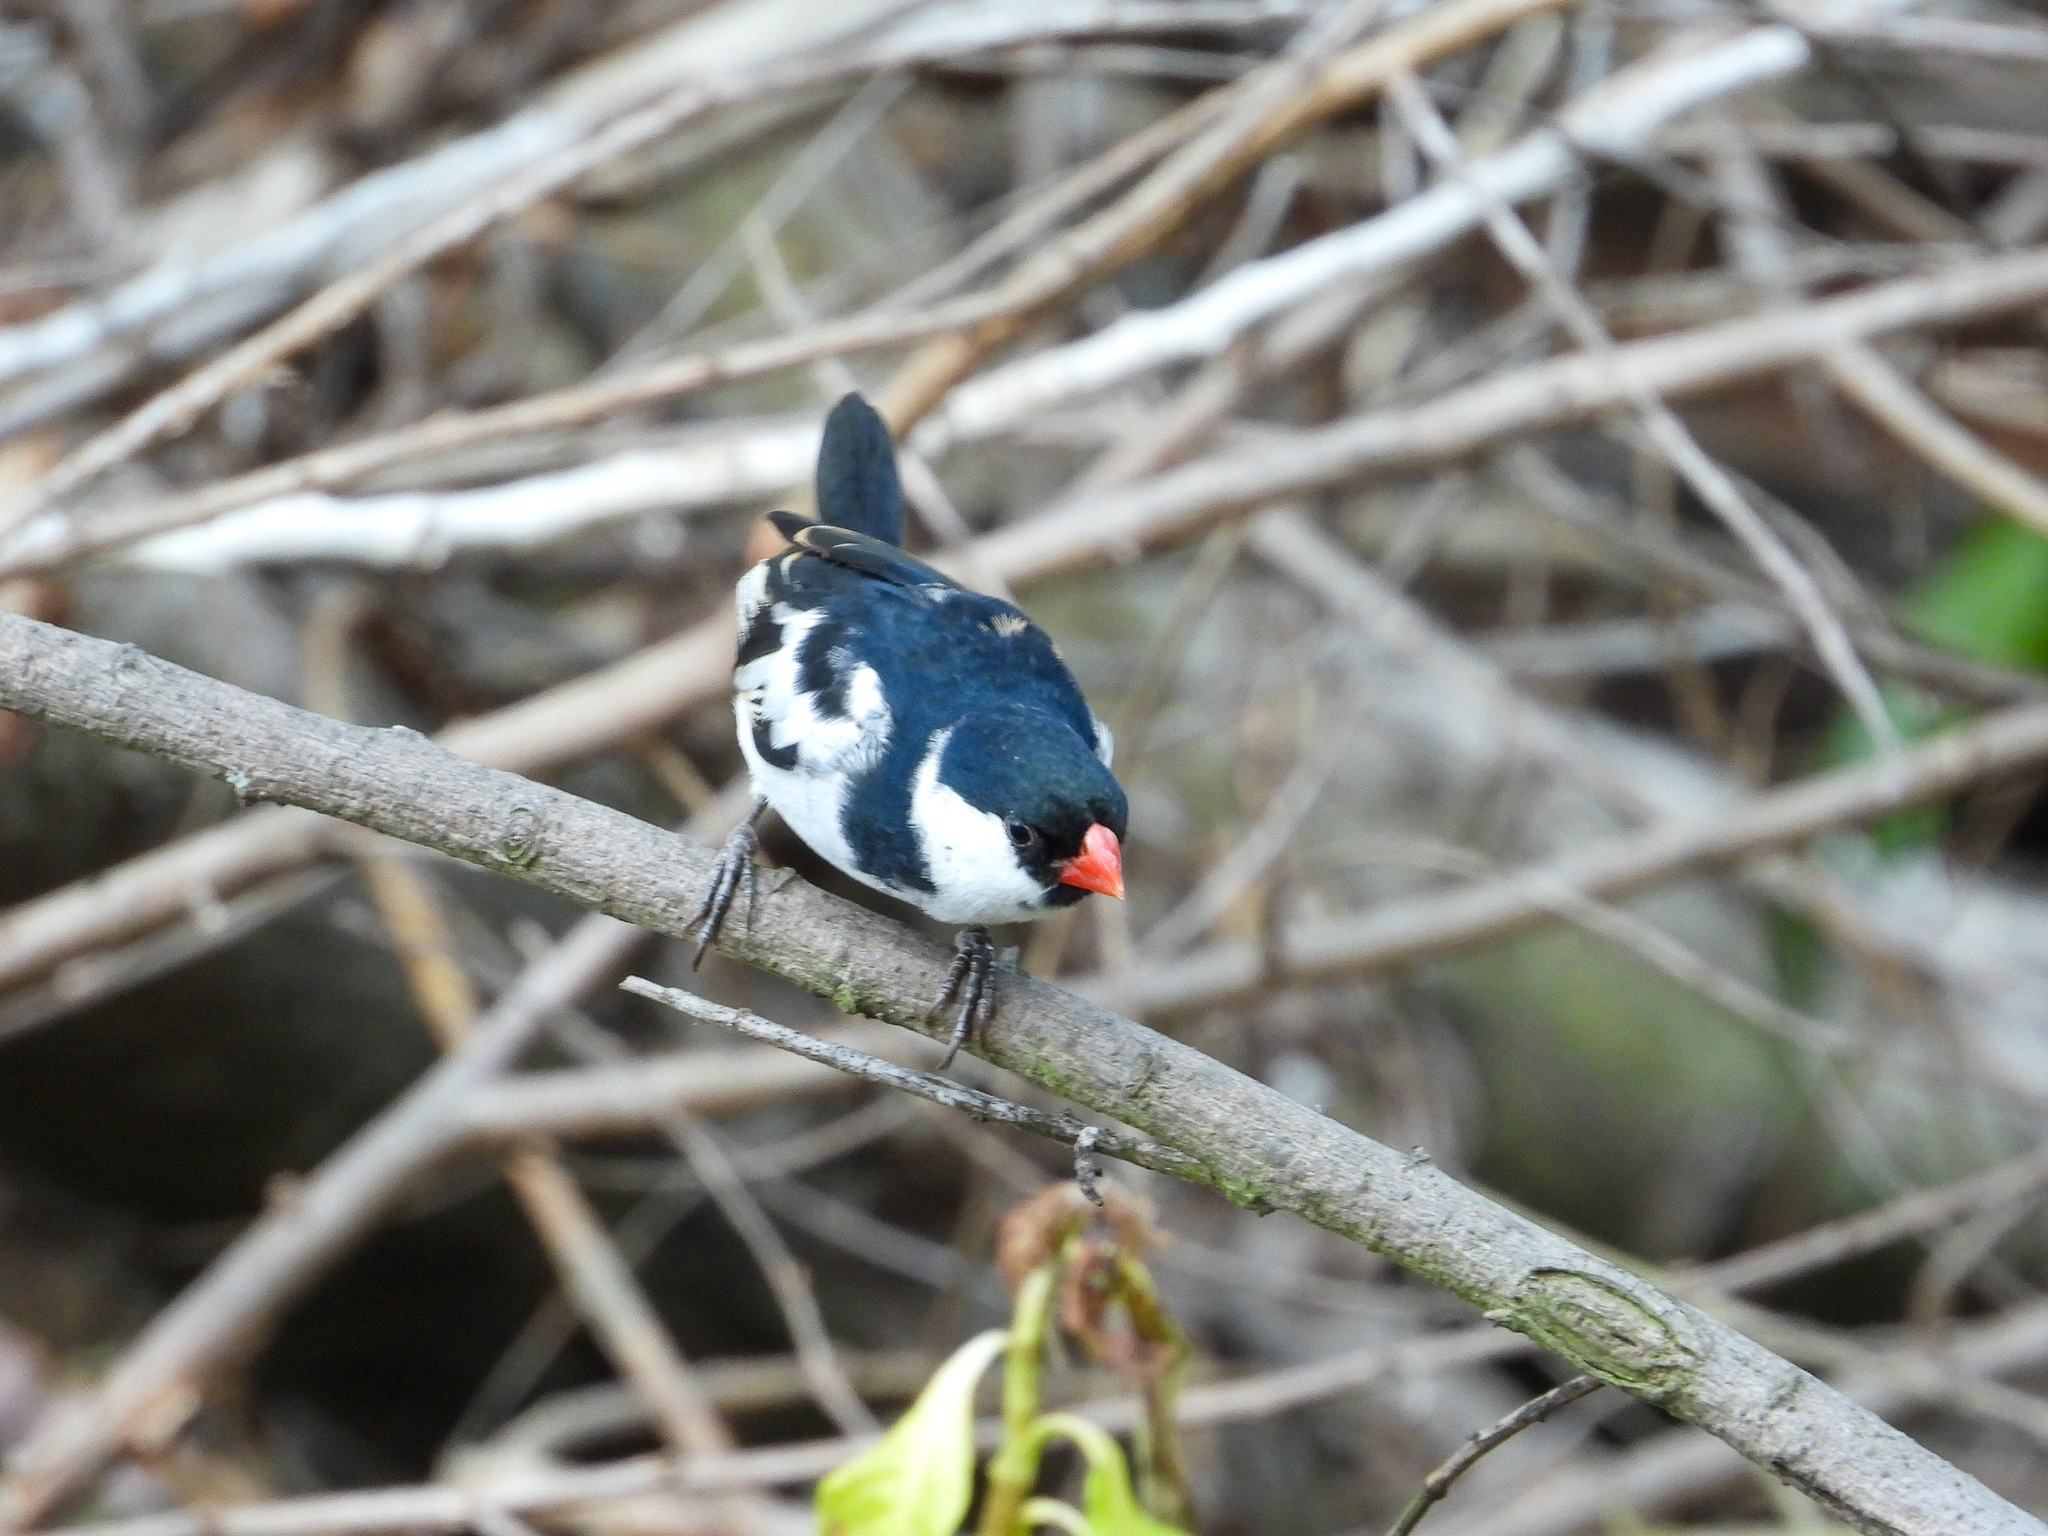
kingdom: Animalia
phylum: Chordata
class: Aves
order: Passeriformes
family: Viduidae
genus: Vidua
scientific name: Vidua macroura
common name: Pin-tailed whydah
